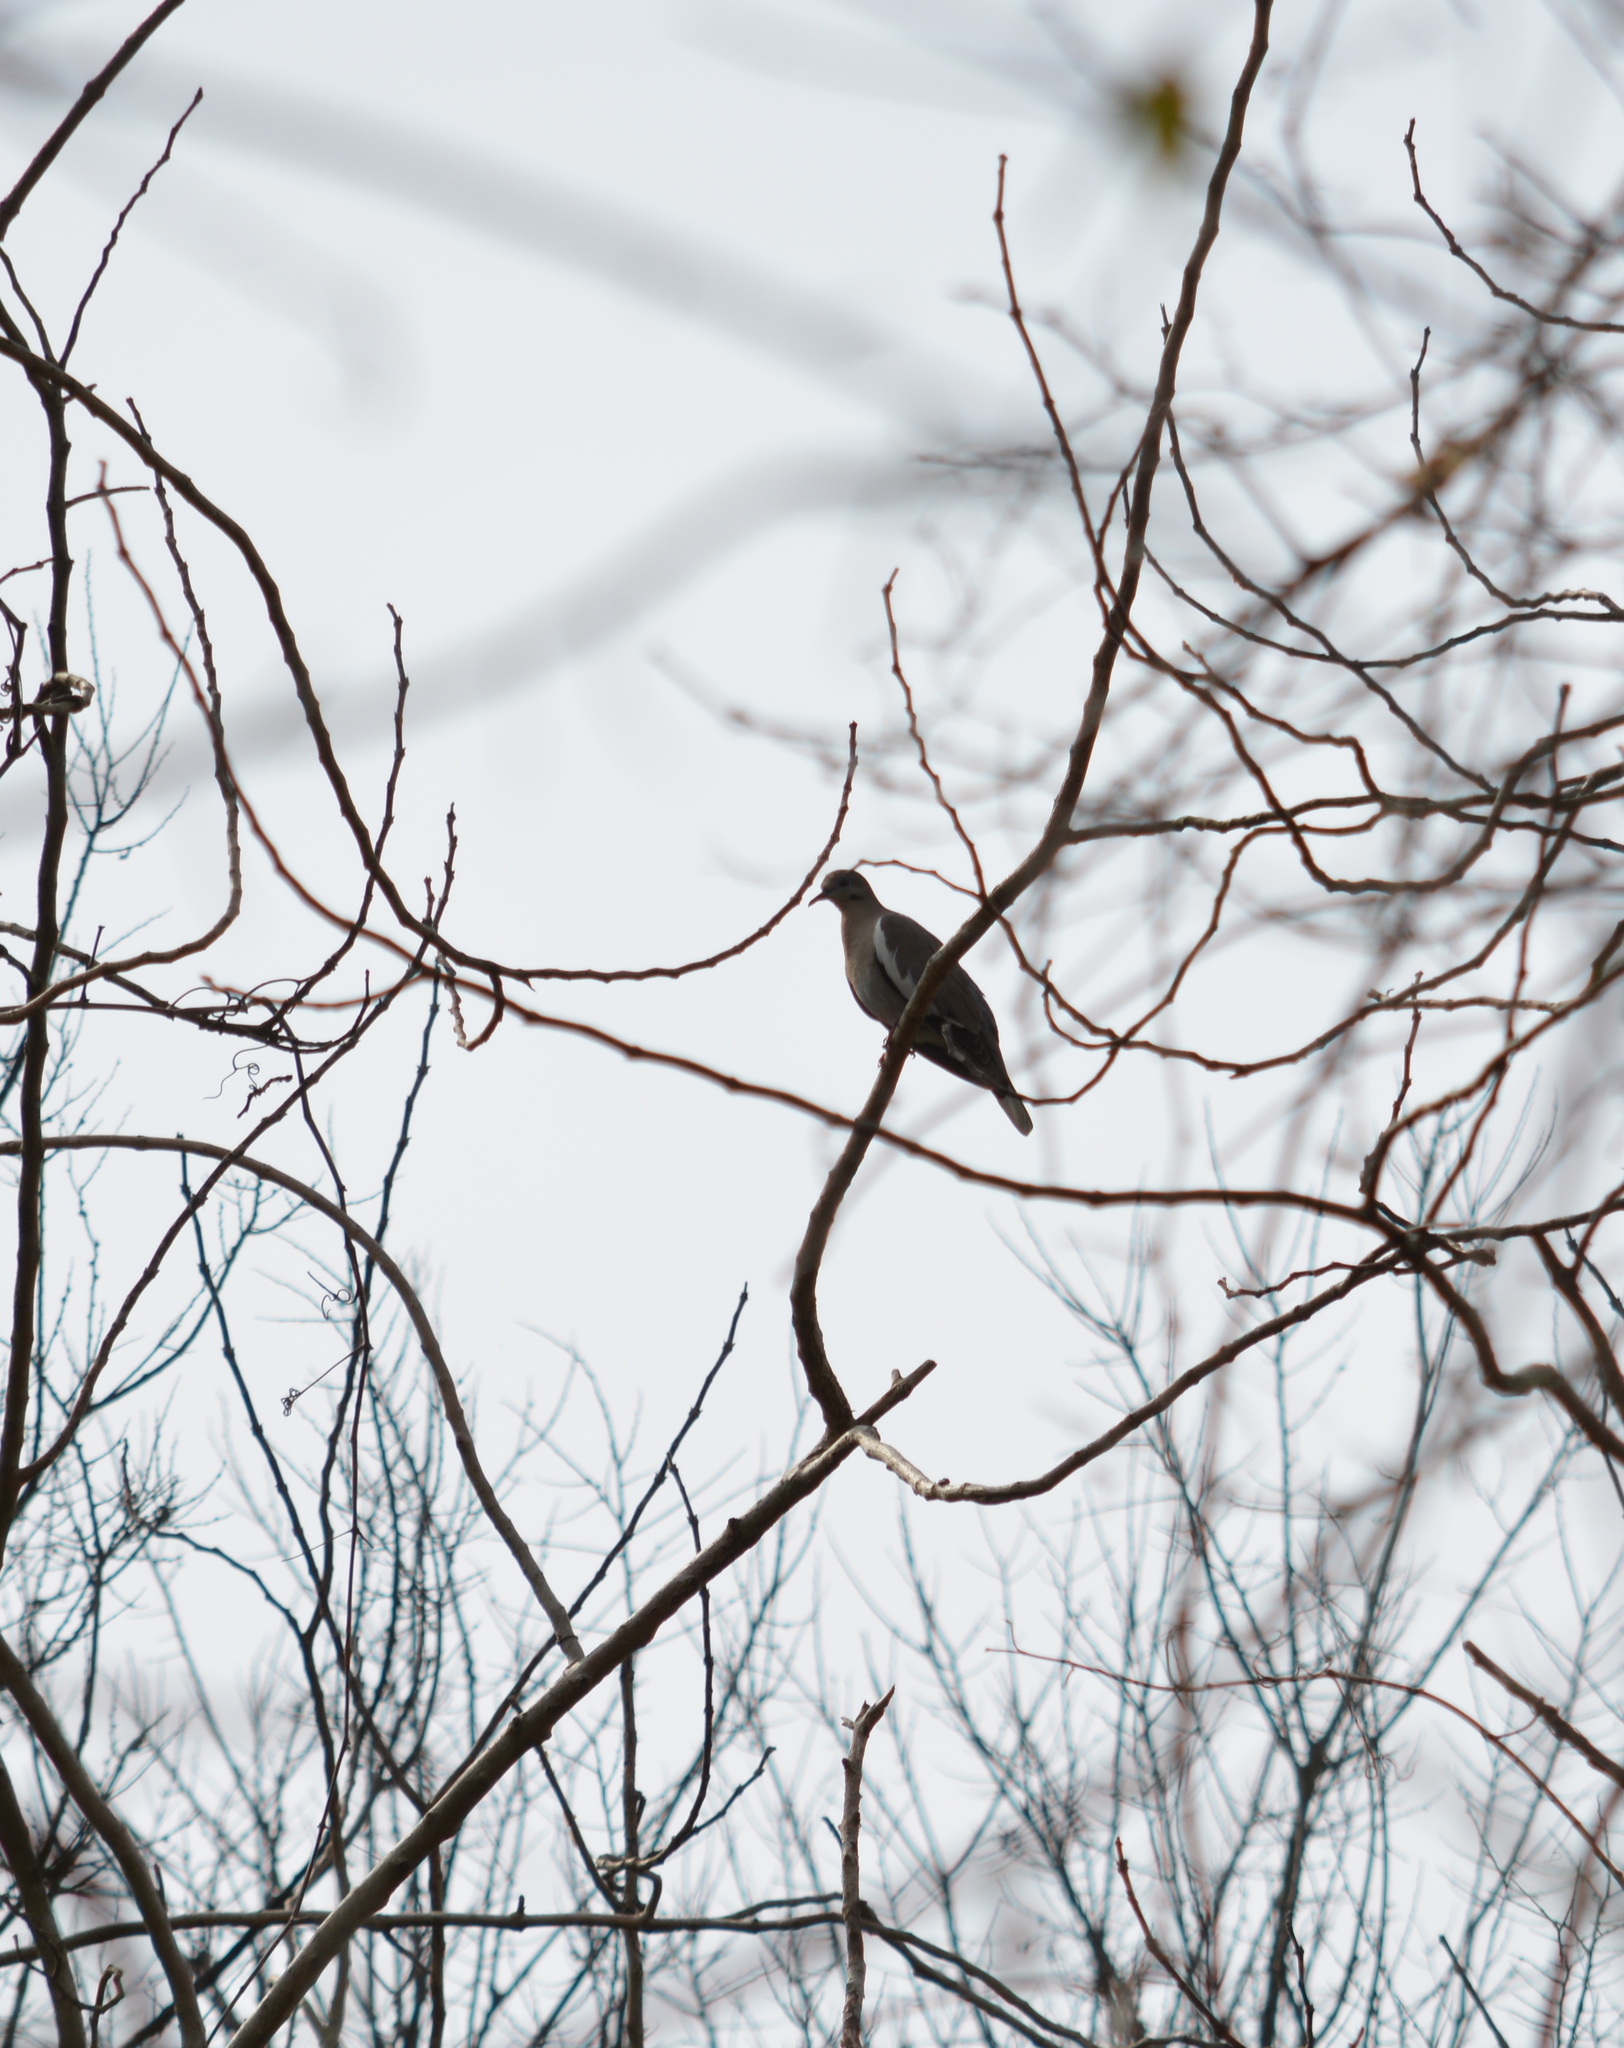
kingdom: Animalia
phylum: Chordata
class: Aves
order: Columbiformes
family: Columbidae
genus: Zenaida
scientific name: Zenaida asiatica
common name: White-winged dove
